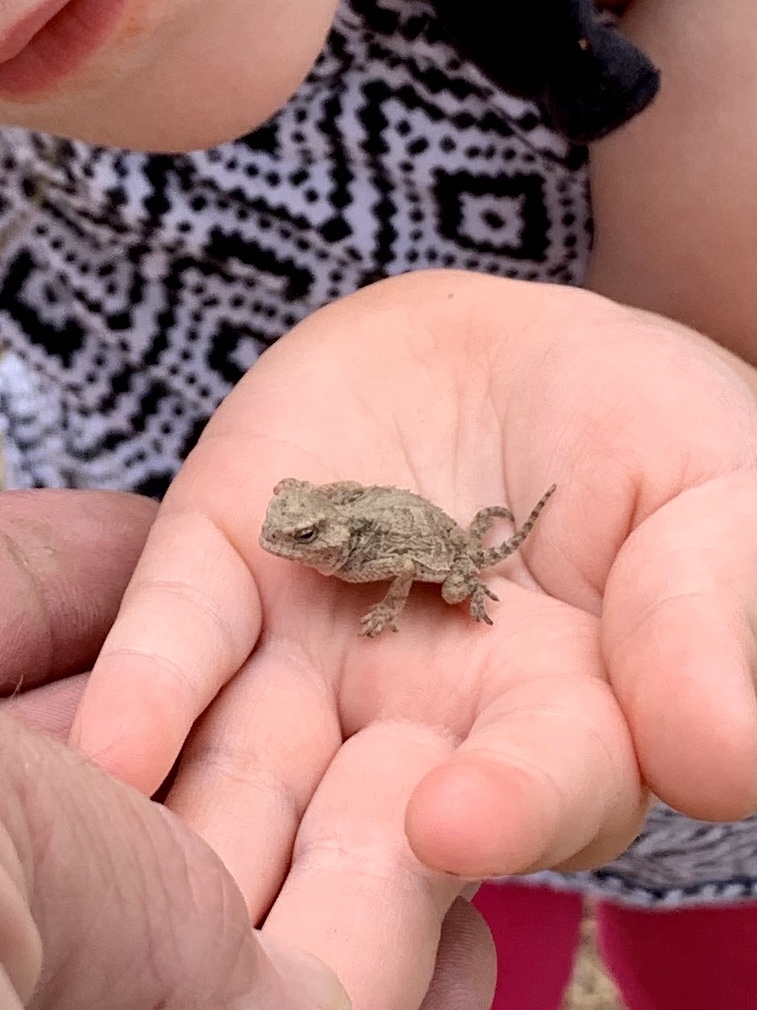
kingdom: Animalia
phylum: Chordata
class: Squamata
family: Phrynosomatidae
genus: Phrynosoma
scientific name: Phrynosoma hernandesi
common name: Greater short-horned lizard
